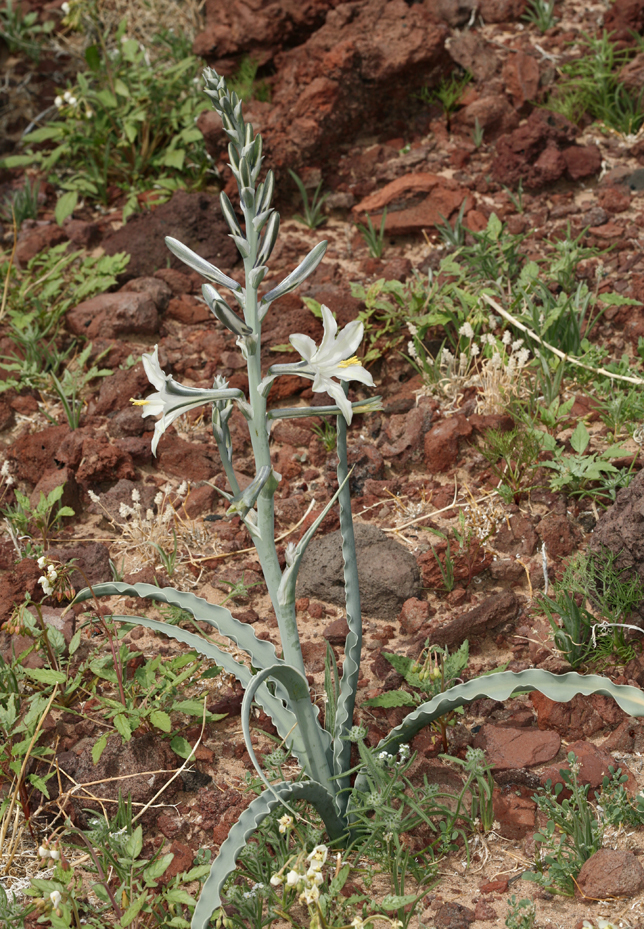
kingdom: Plantae
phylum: Tracheophyta
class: Liliopsida
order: Asparagales
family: Asparagaceae
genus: Hesperocallis
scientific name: Hesperocallis undulata
